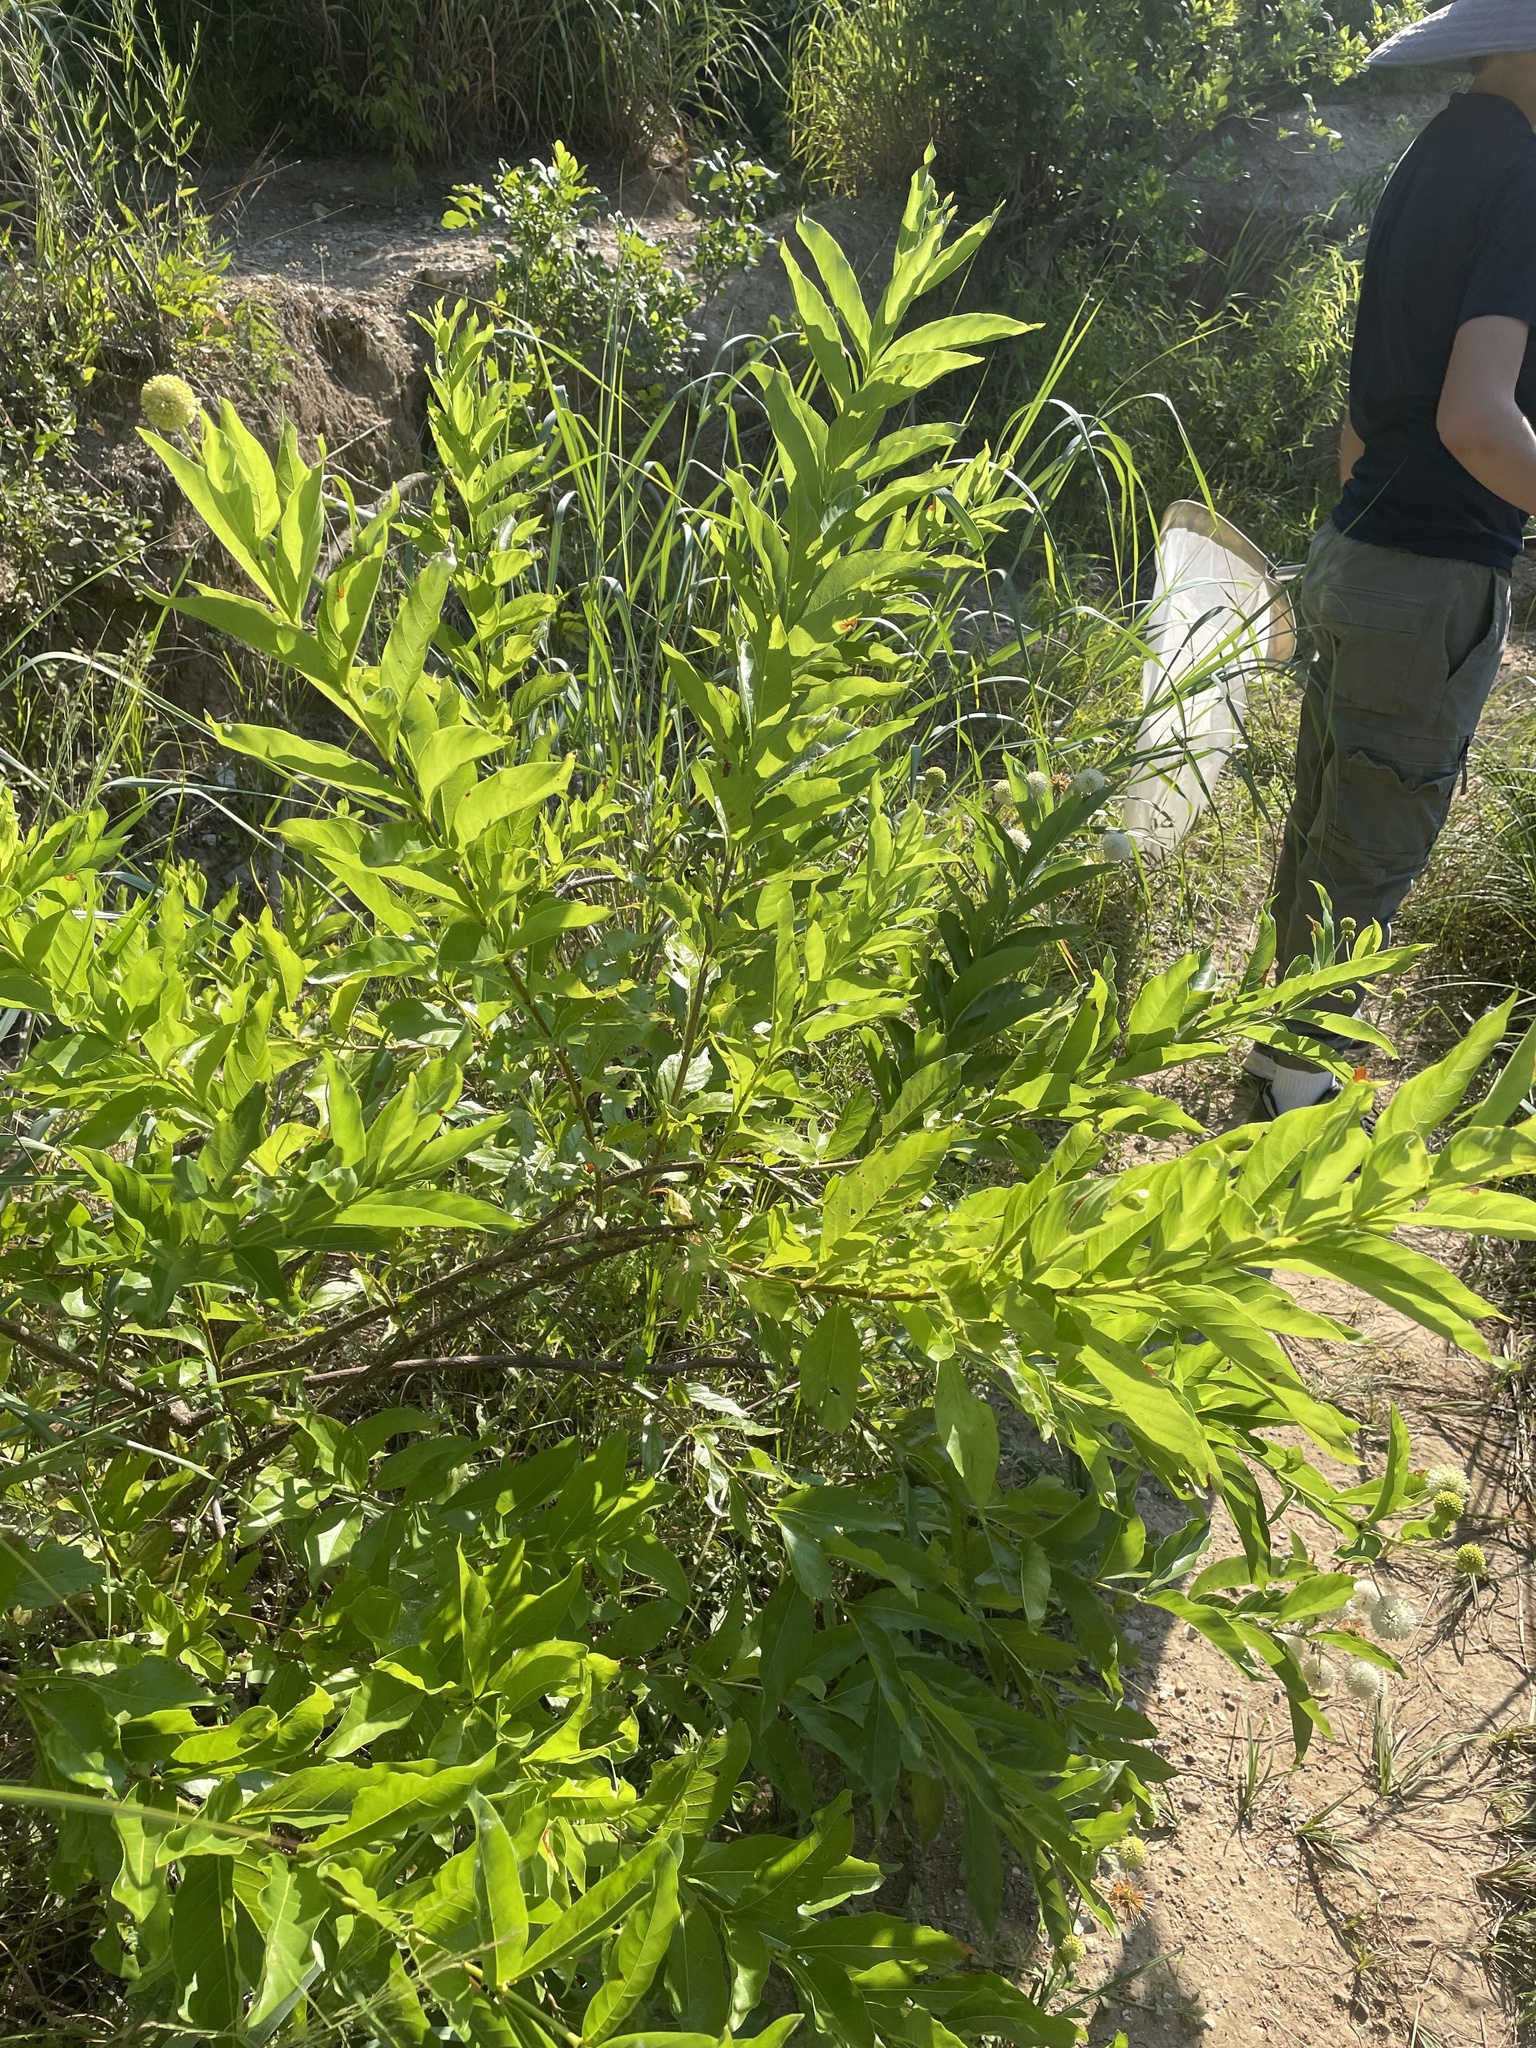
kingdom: Plantae
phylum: Tracheophyta
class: Magnoliopsida
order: Gentianales
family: Rubiaceae
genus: Cephalanthus
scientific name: Cephalanthus occidentalis
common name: Button-willow
